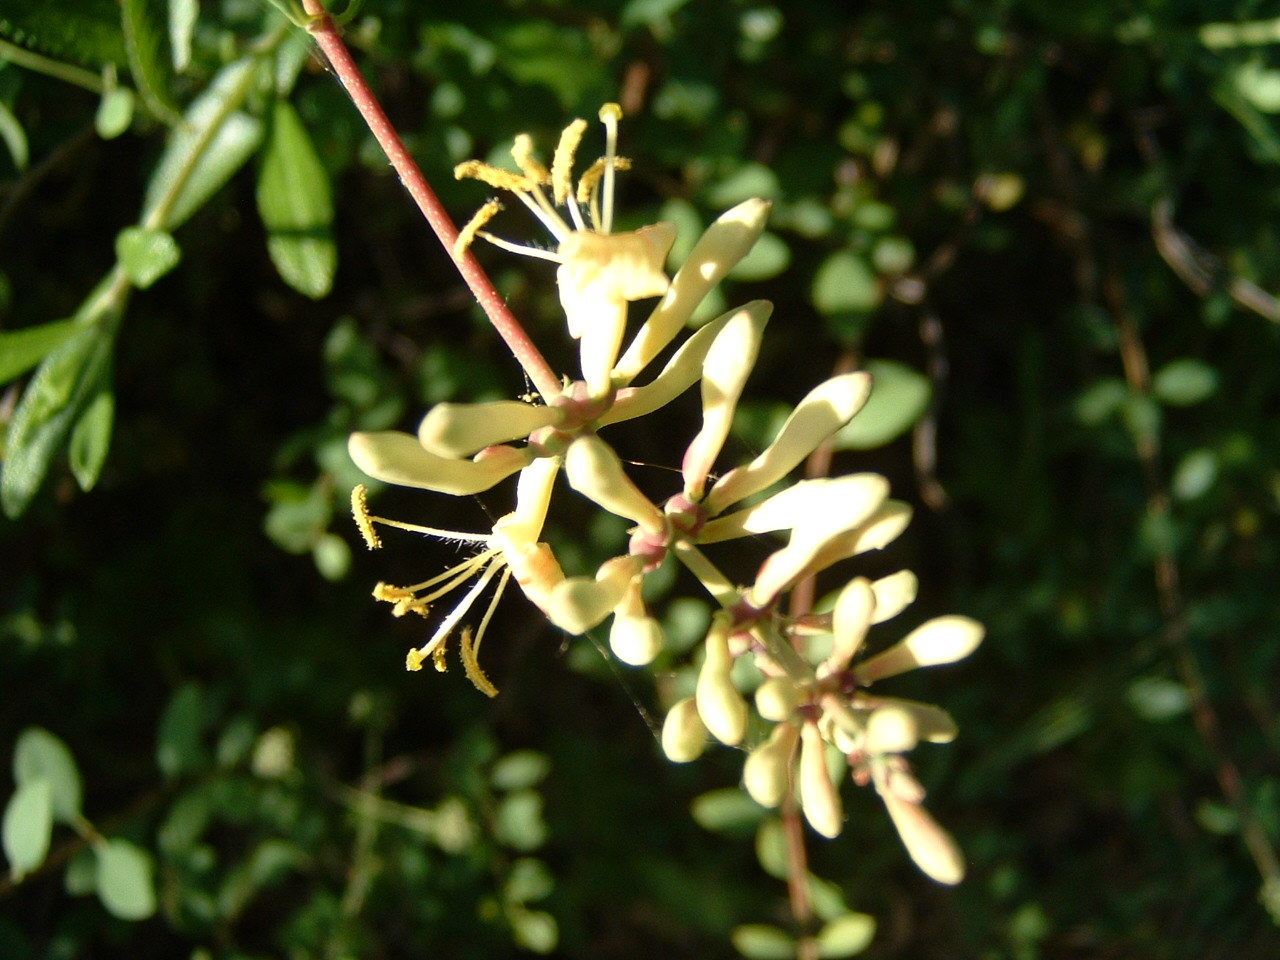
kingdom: Plantae
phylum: Tracheophyta
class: Magnoliopsida
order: Dipsacales
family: Caprifoliaceae
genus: Lonicera
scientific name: Lonicera subspicata
